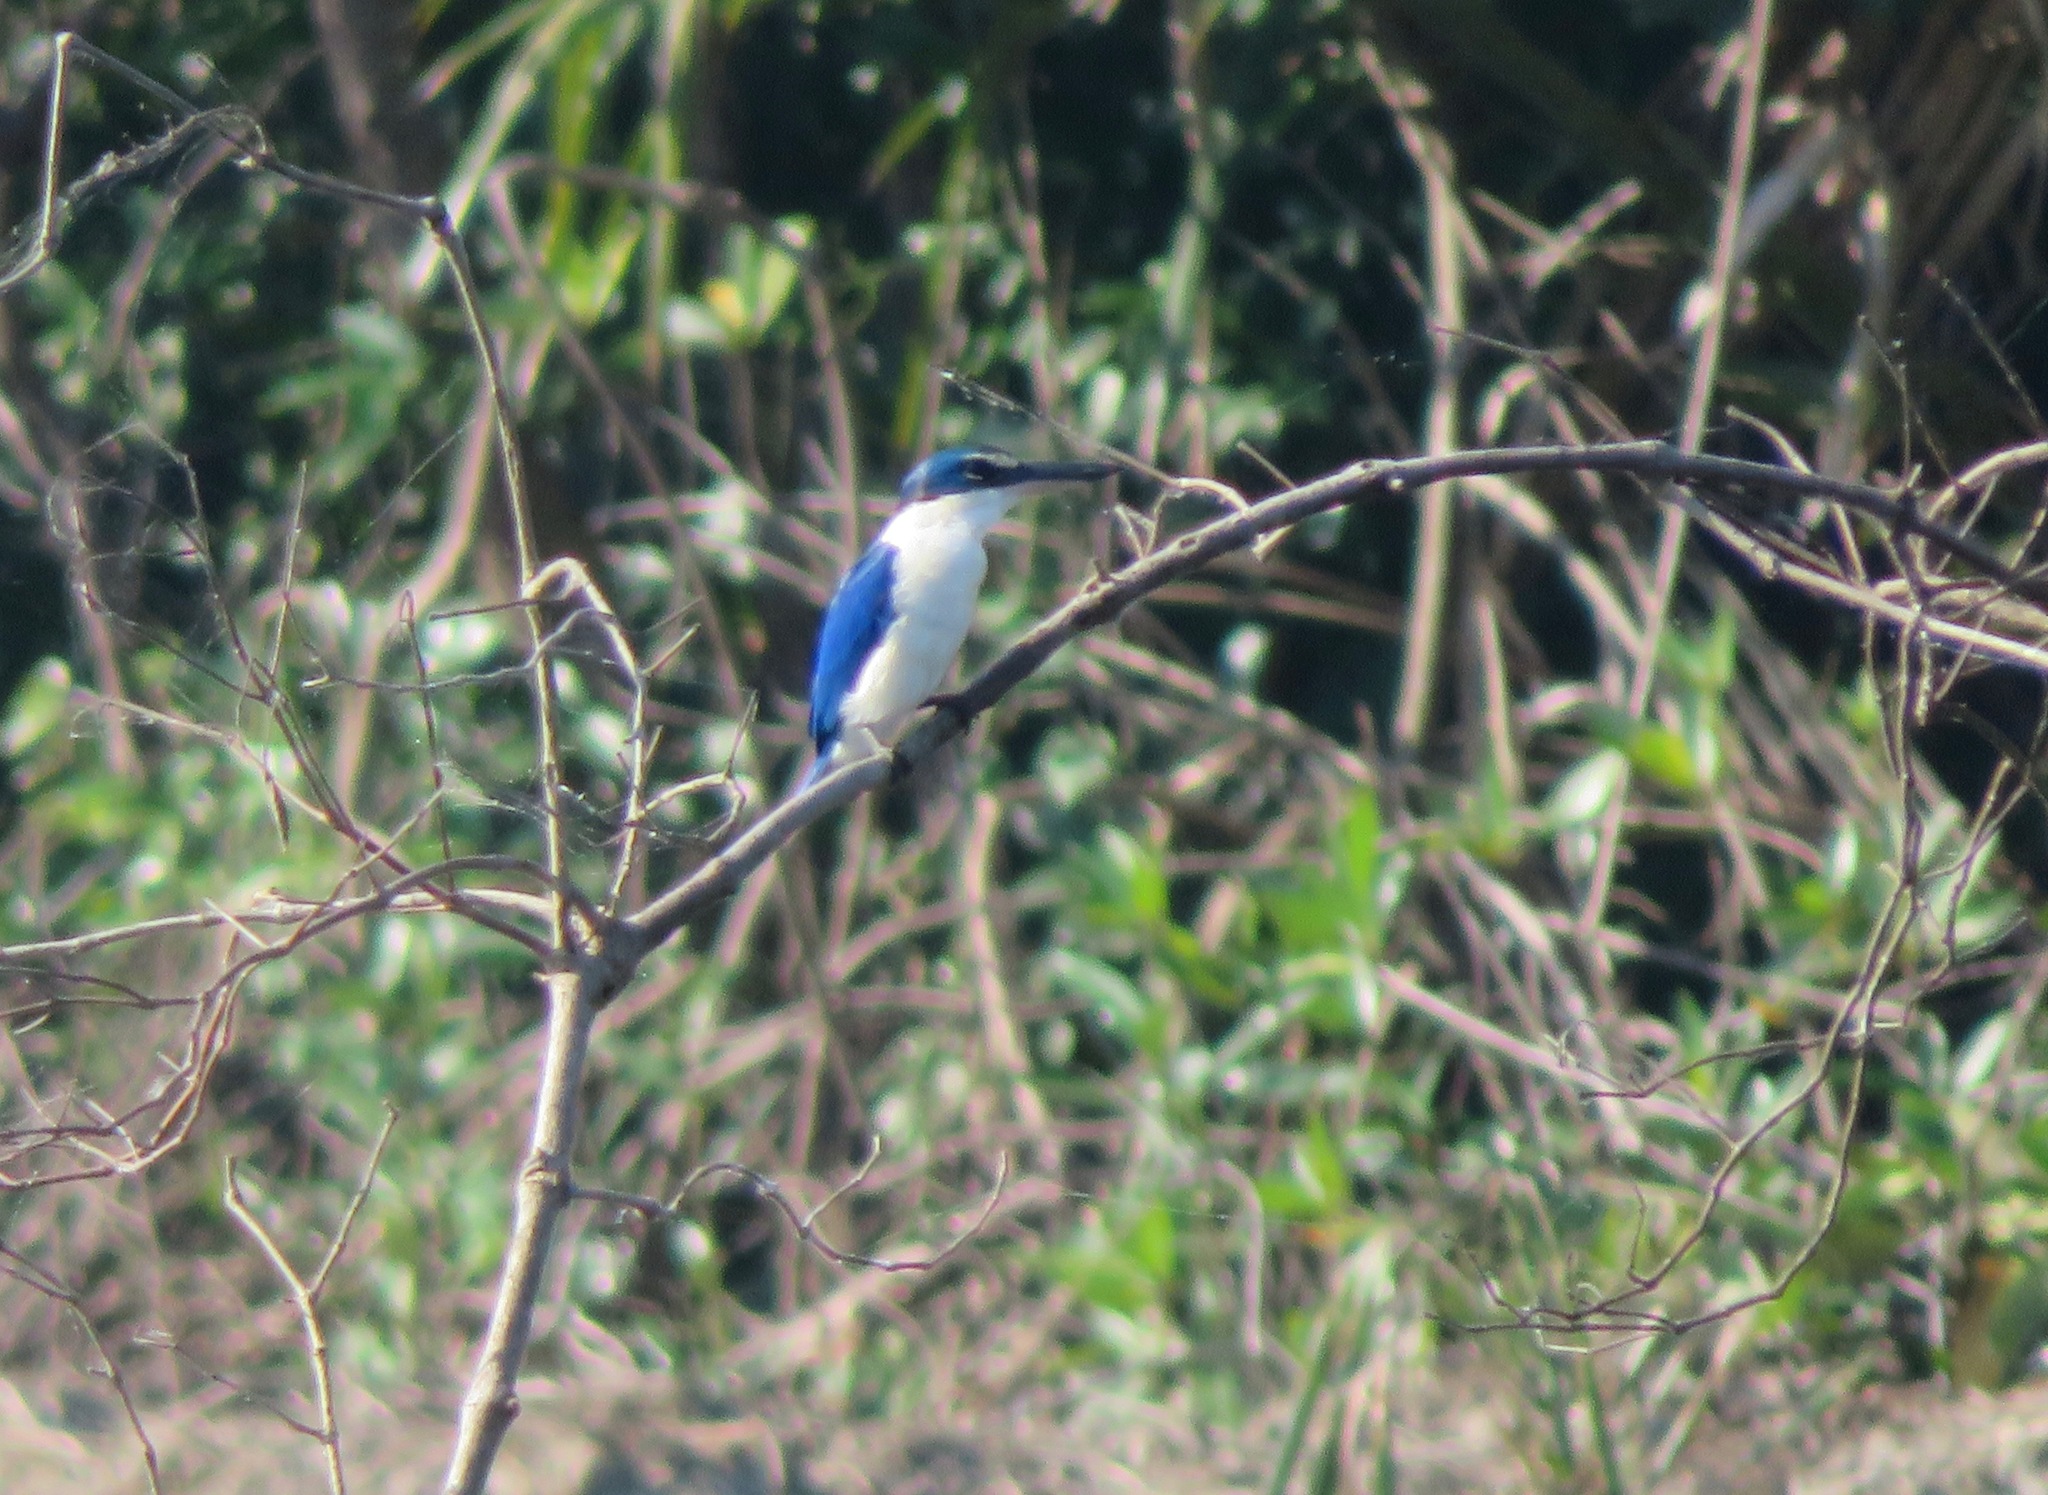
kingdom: Animalia
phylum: Chordata
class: Aves
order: Coraciiformes
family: Alcedinidae
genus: Todiramphus
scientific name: Todiramphus chloris
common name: Collared kingfisher
